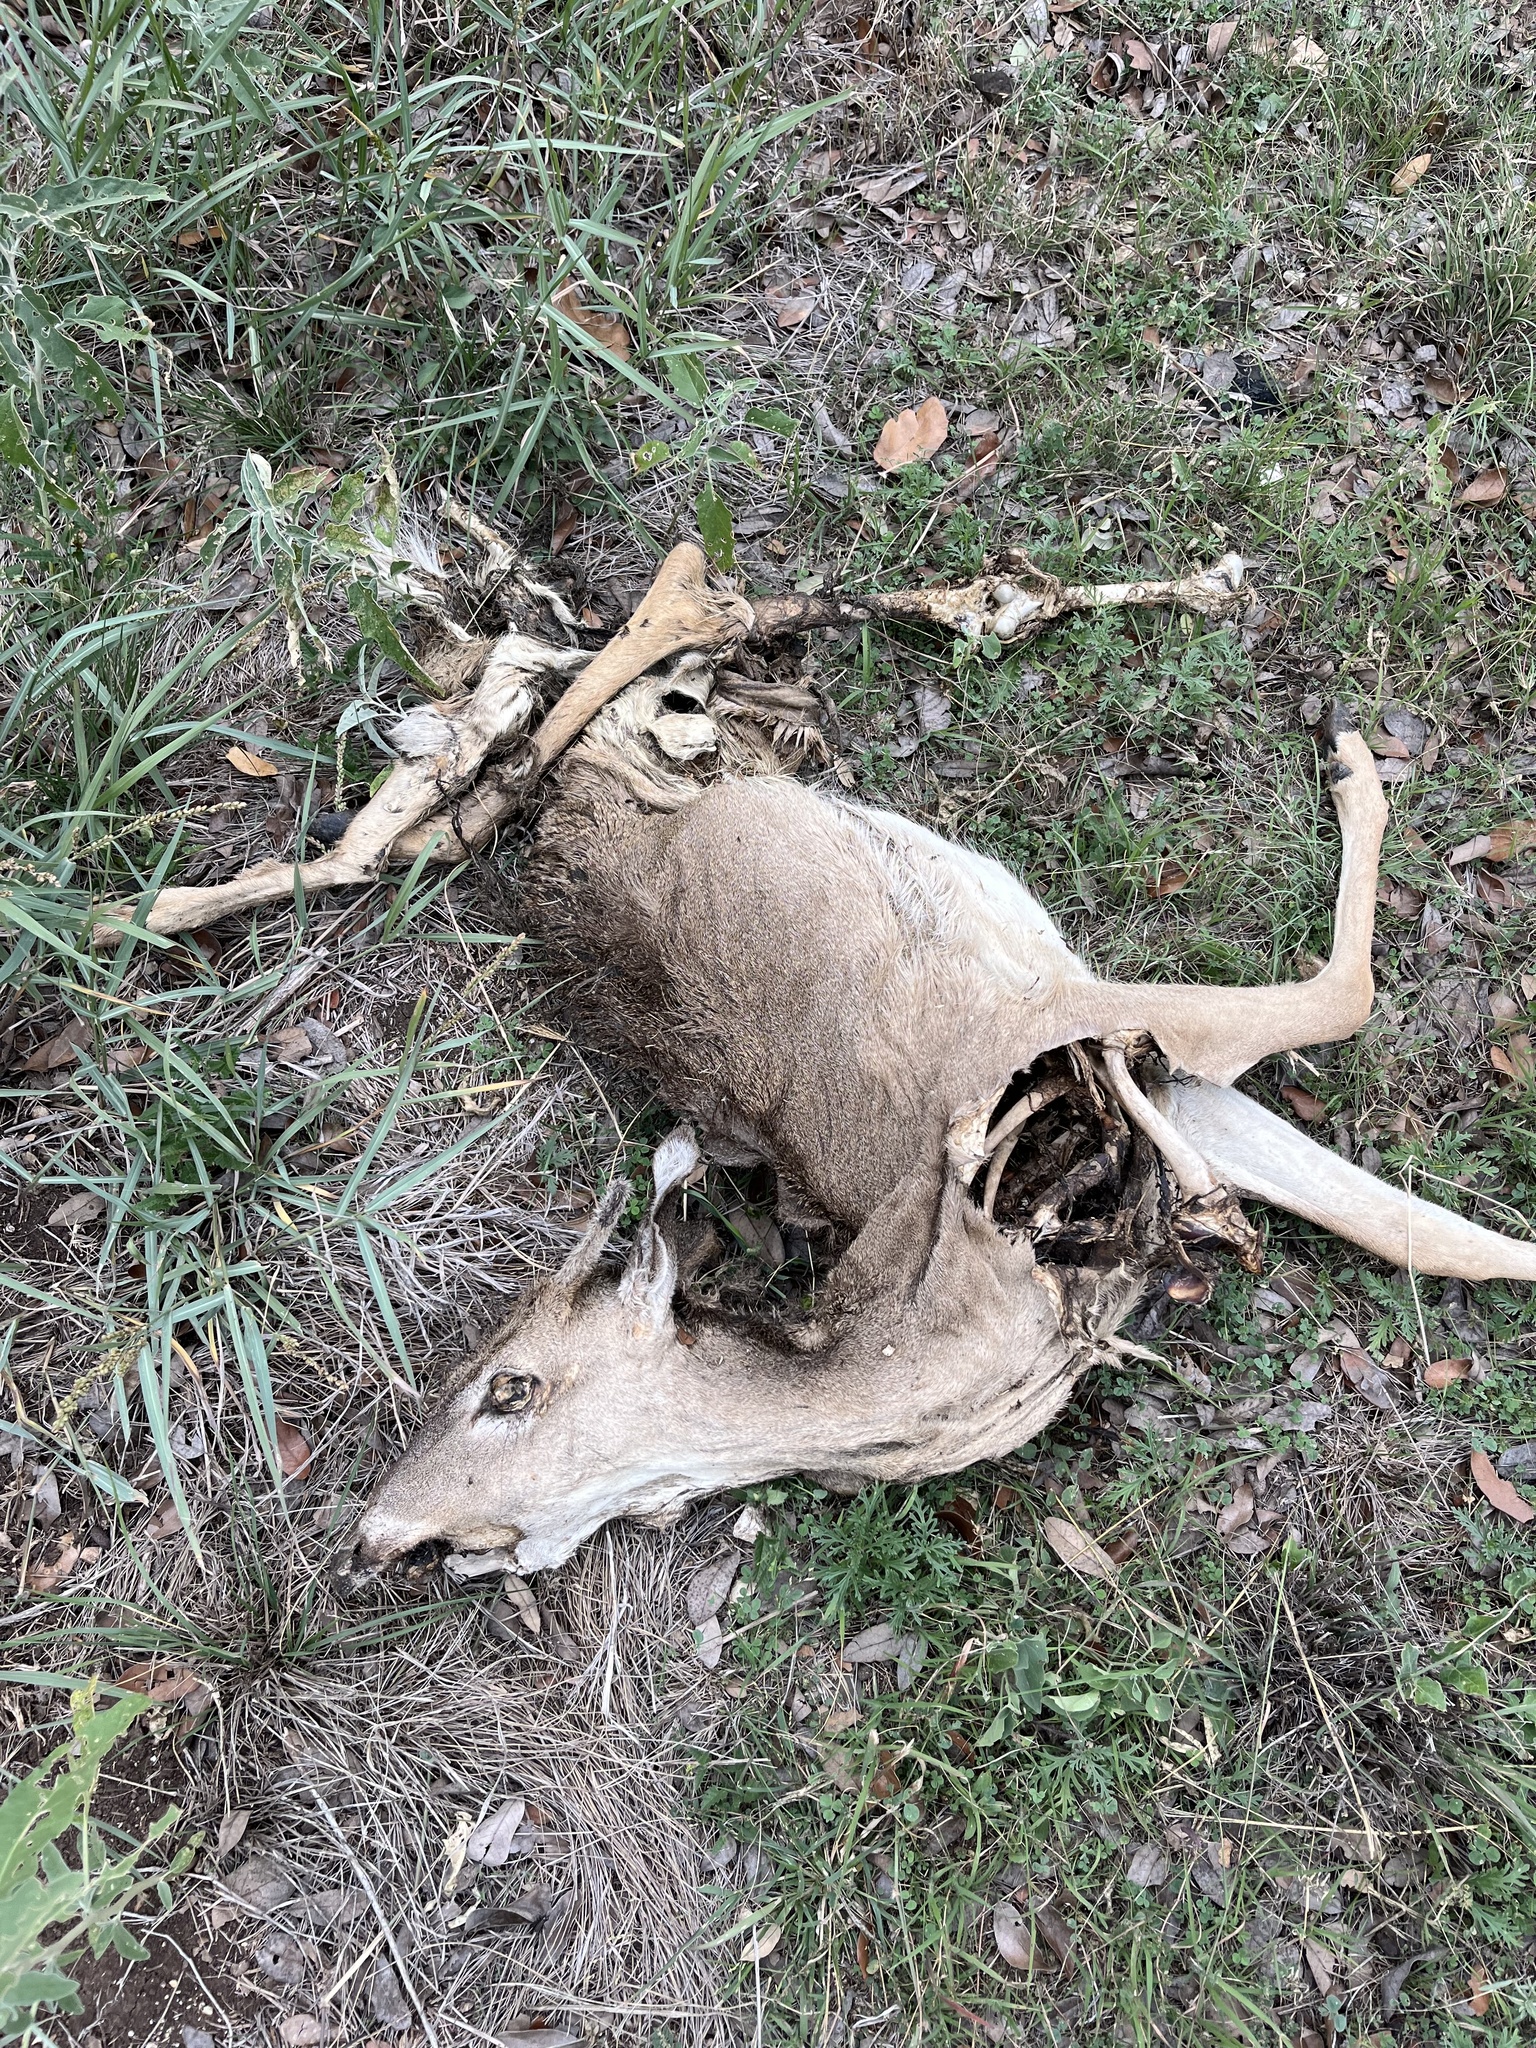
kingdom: Animalia
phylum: Chordata
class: Mammalia
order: Artiodactyla
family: Cervidae
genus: Odocoileus
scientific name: Odocoileus virginianus
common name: White-tailed deer
